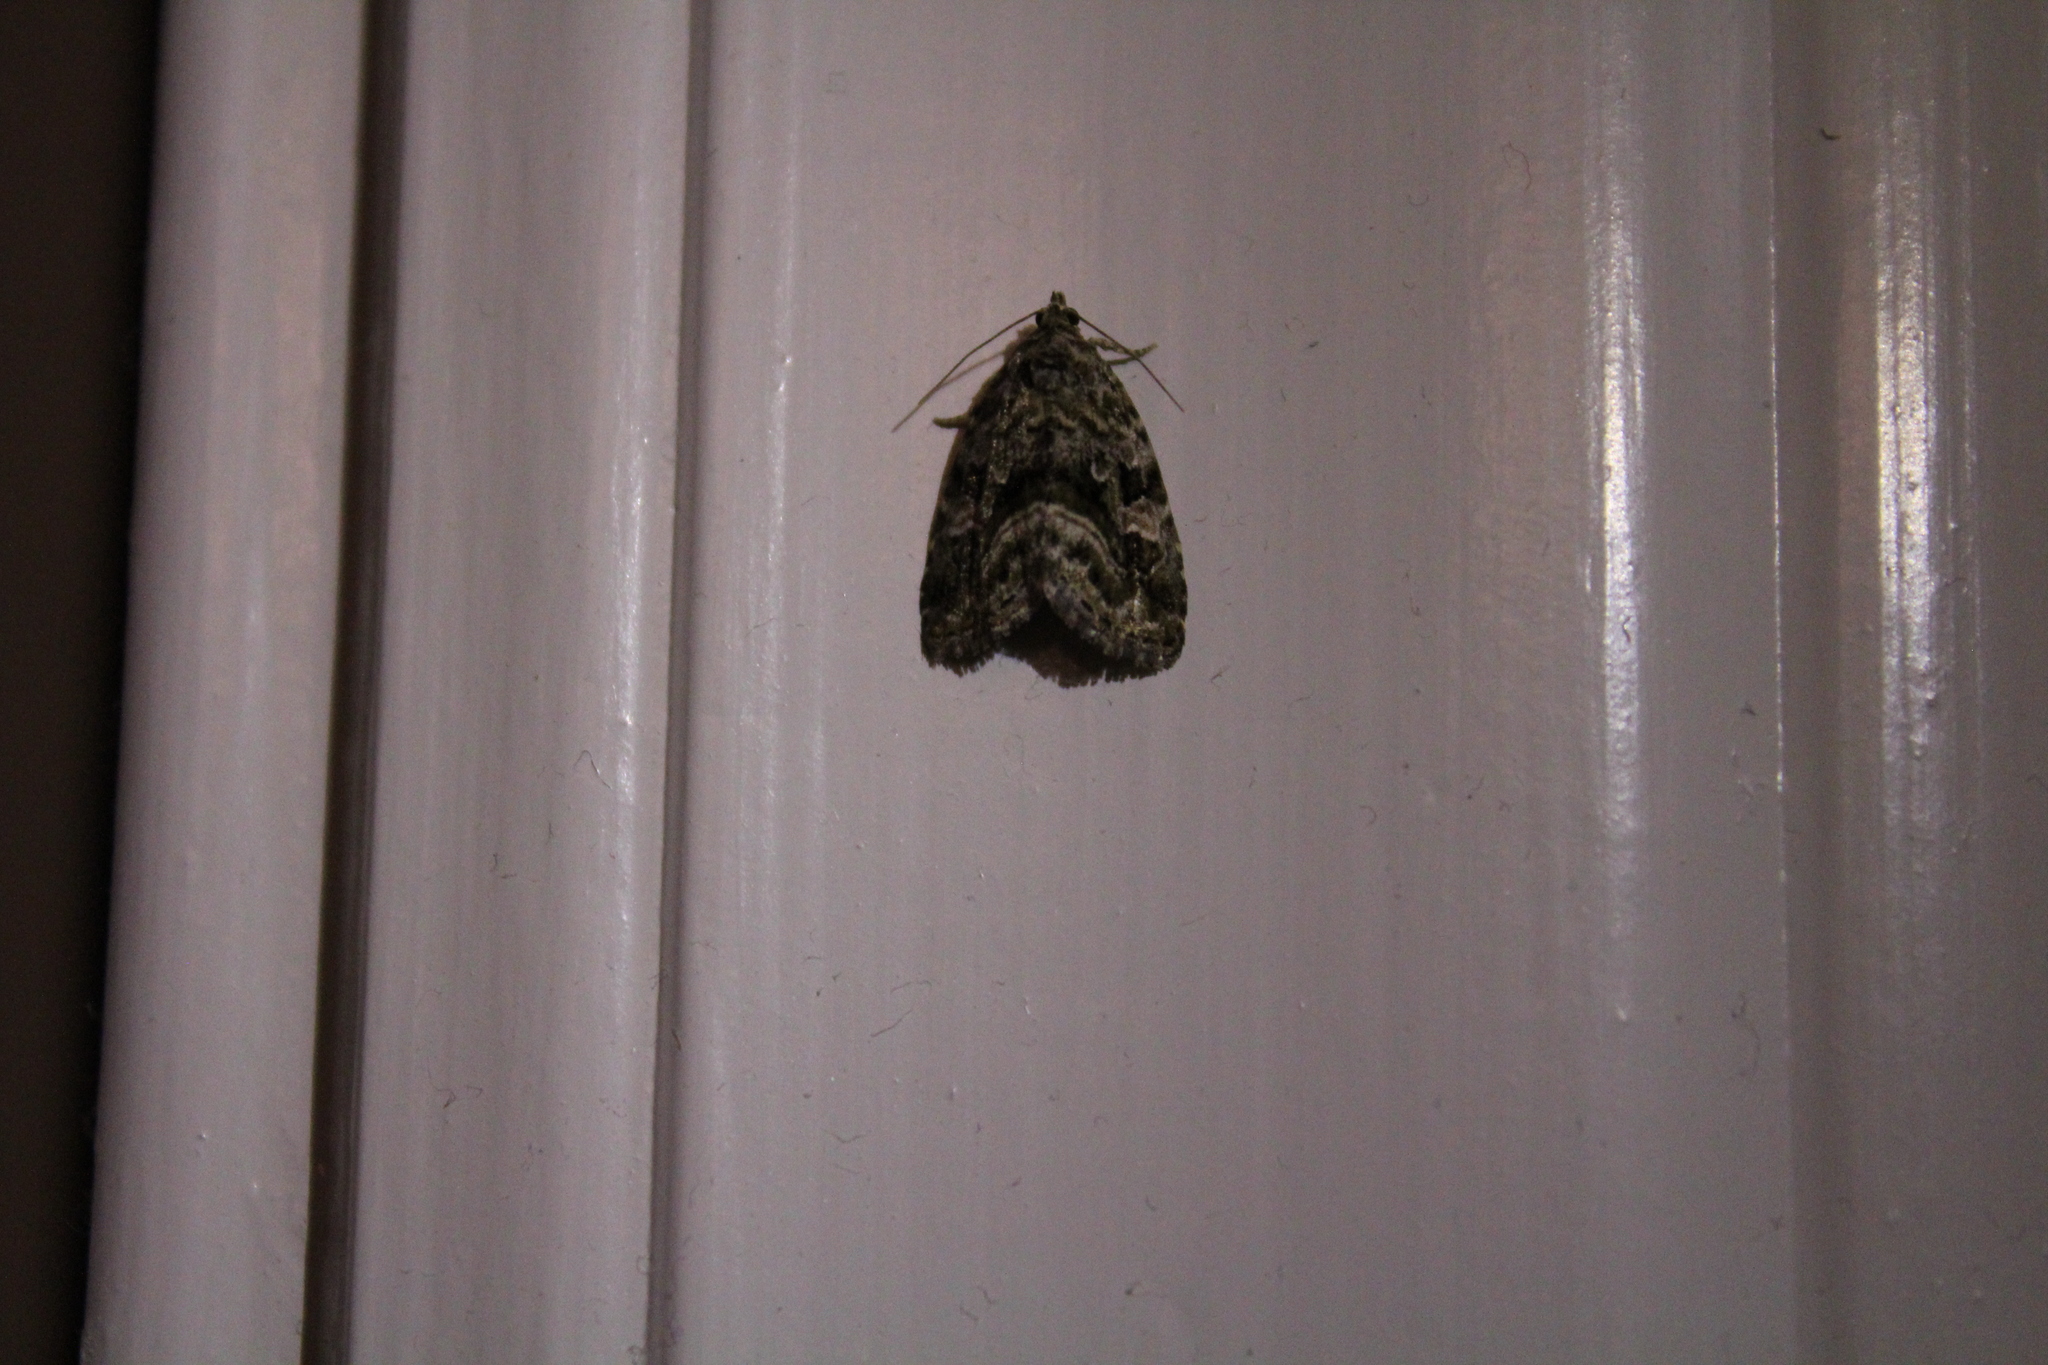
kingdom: Animalia
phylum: Arthropoda
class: Insecta
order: Lepidoptera
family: Noctuidae
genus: Lithacodia
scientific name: Lithacodia musta
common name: Small mossy glyph
